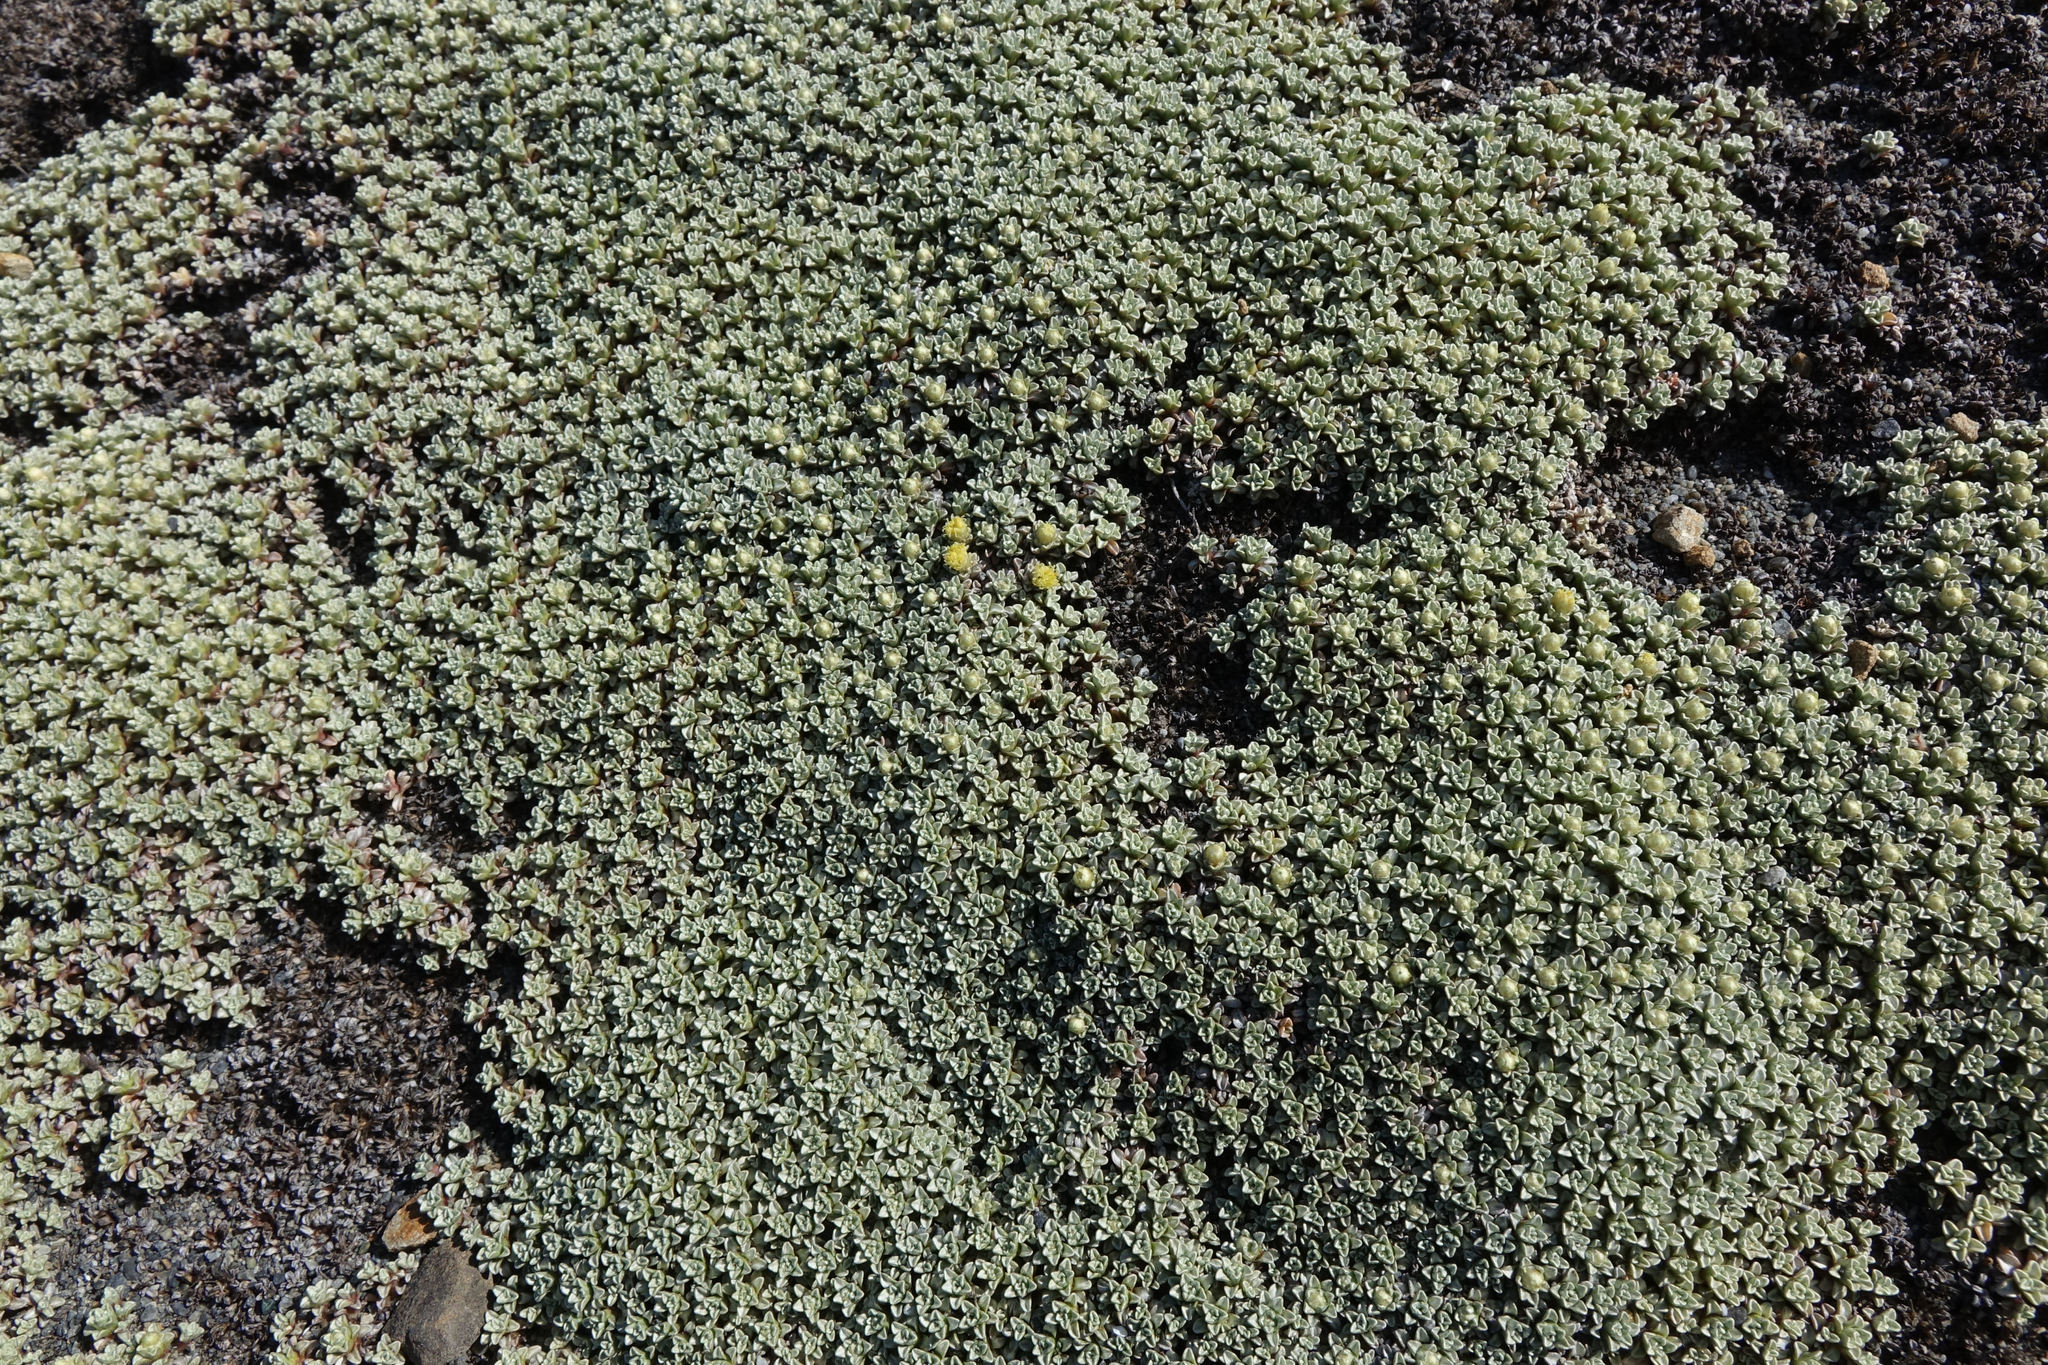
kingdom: Plantae
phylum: Tracheophyta
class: Magnoliopsida
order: Asterales
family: Asteraceae
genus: Raoulia
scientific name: Raoulia hookeri
